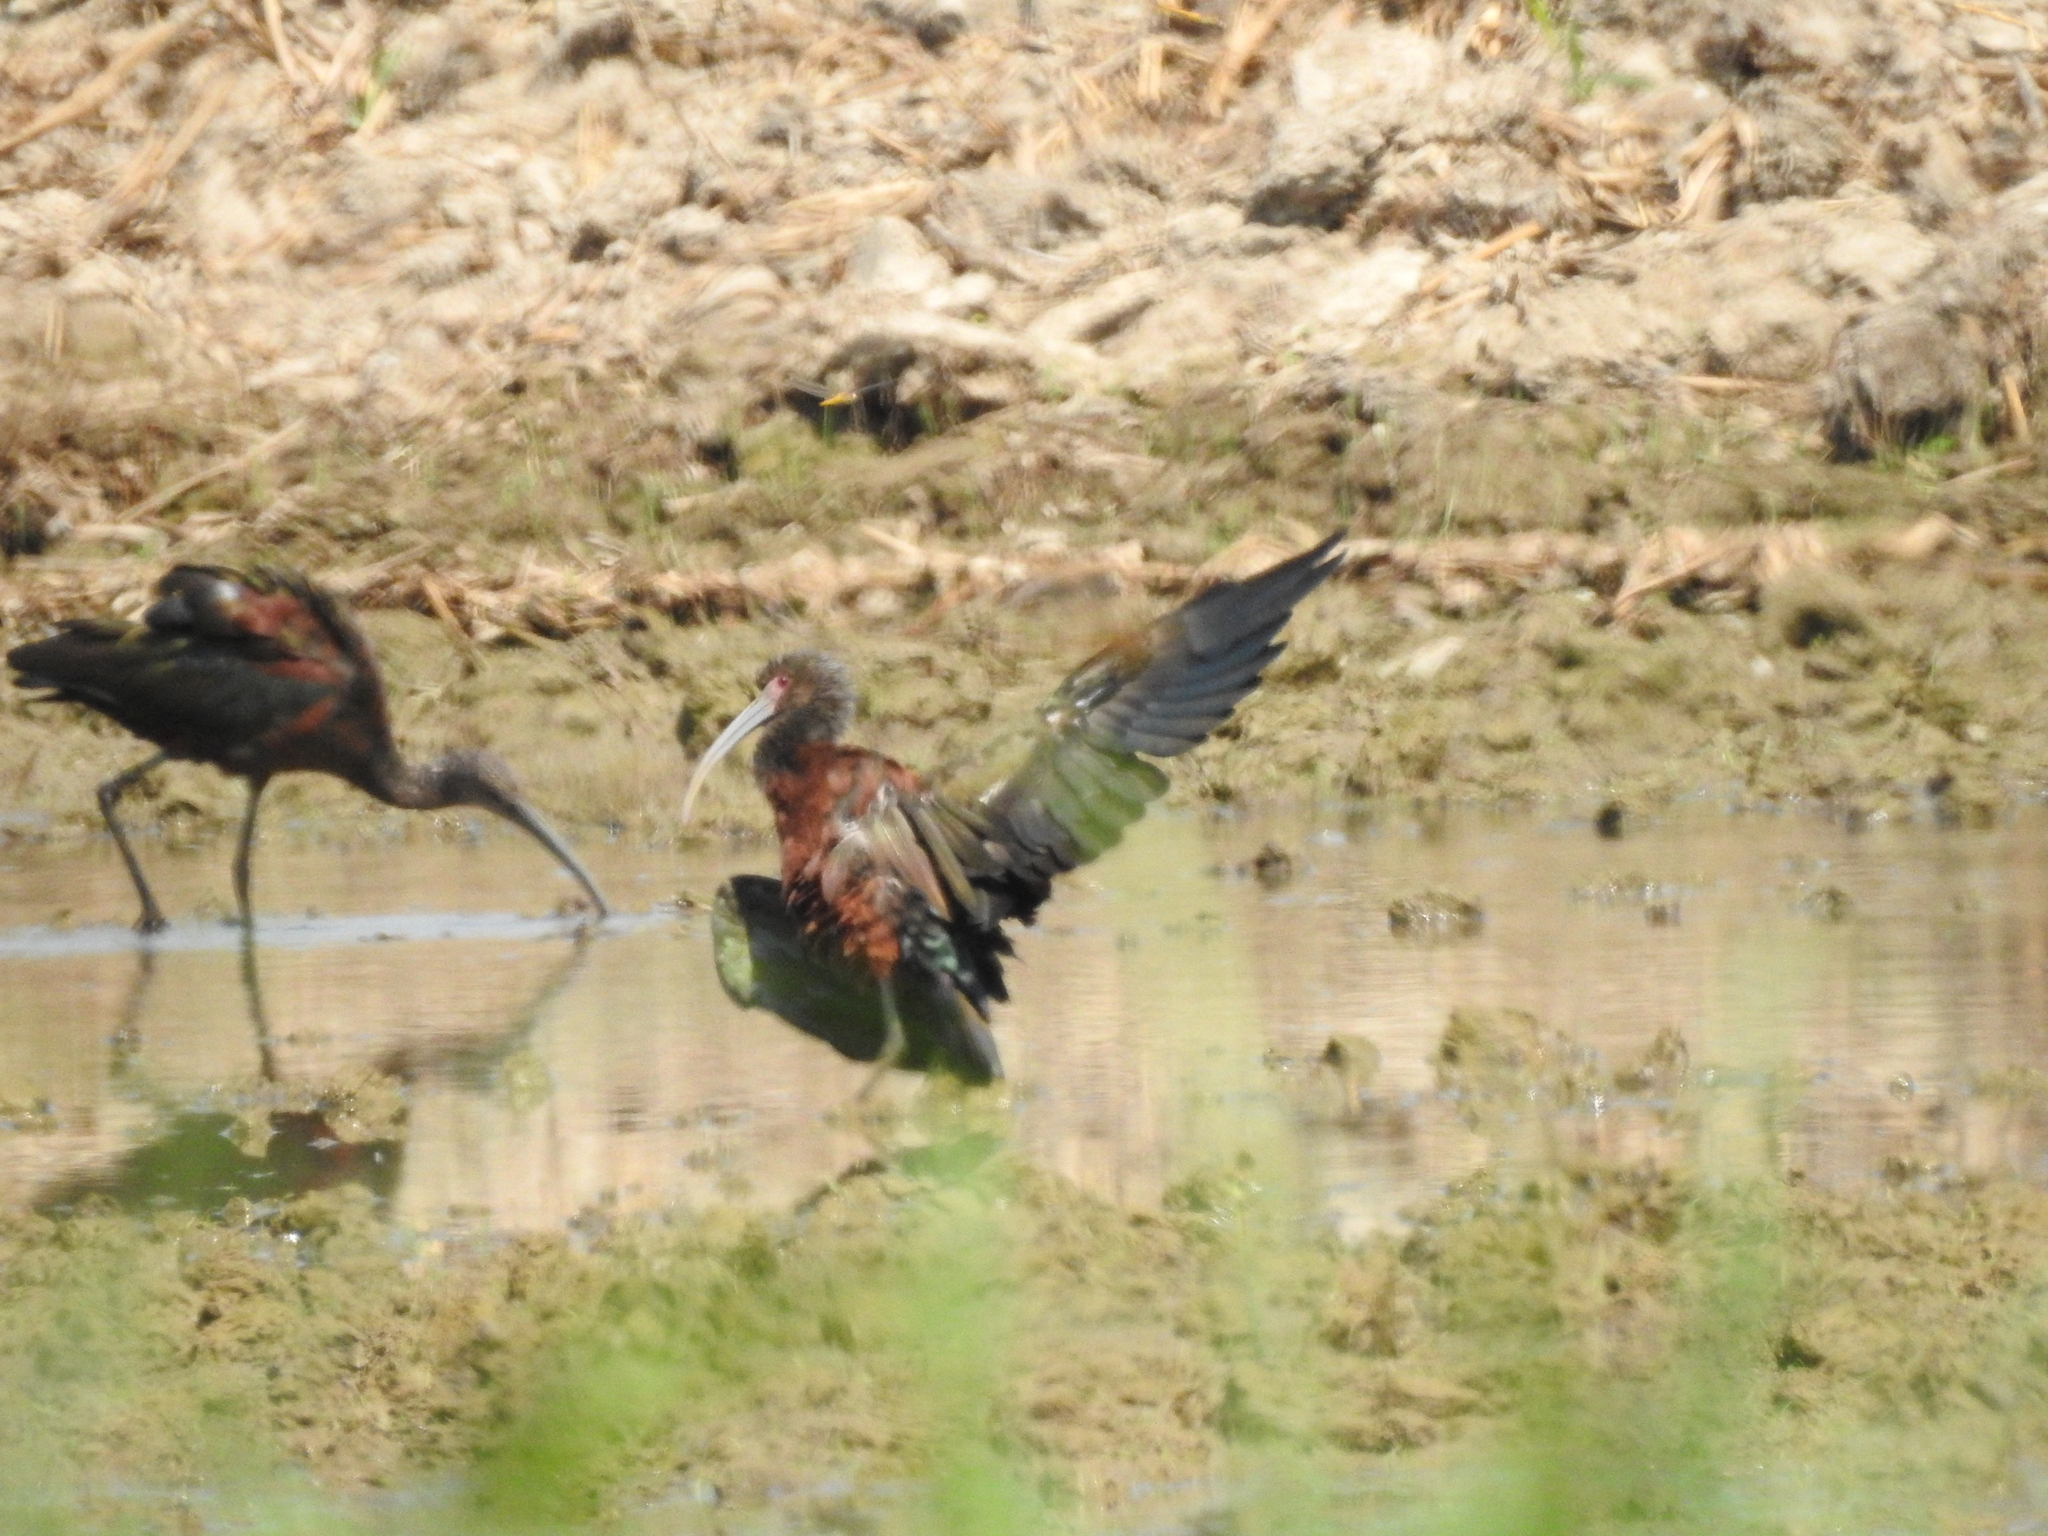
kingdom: Animalia
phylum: Chordata
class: Aves
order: Pelecaniformes
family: Threskiornithidae
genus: Plegadis
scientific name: Plegadis chihi
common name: White-faced ibis
